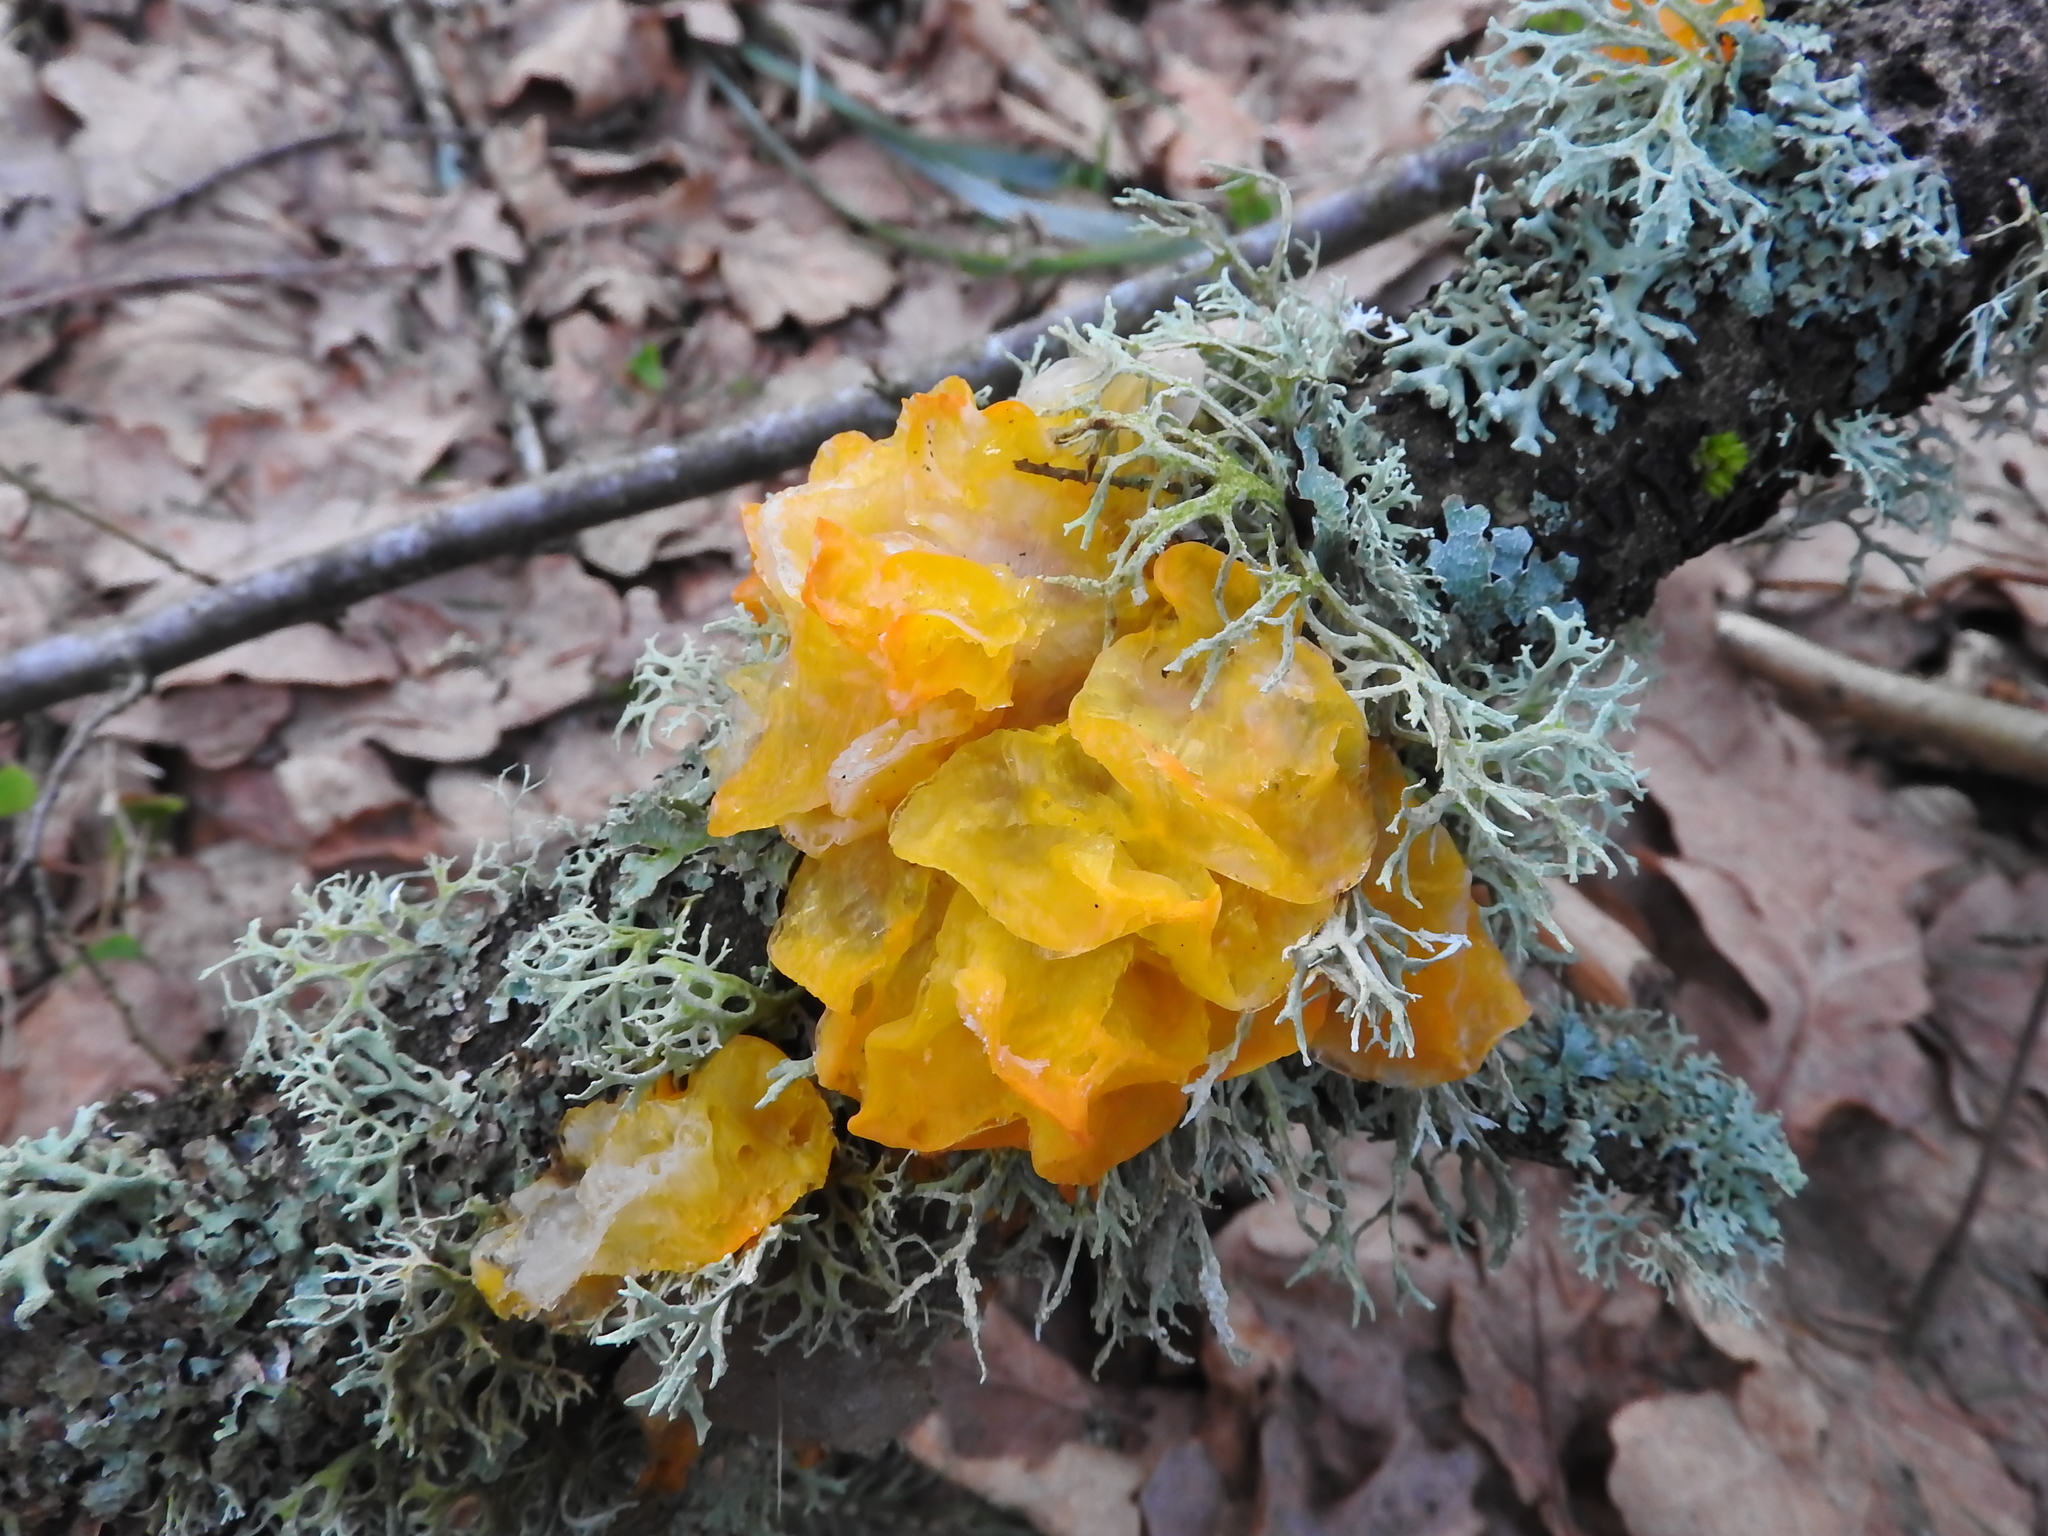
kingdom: Fungi
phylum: Basidiomycota
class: Tremellomycetes
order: Tremellales
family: Tremellaceae
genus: Tremella
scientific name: Tremella mesenterica
